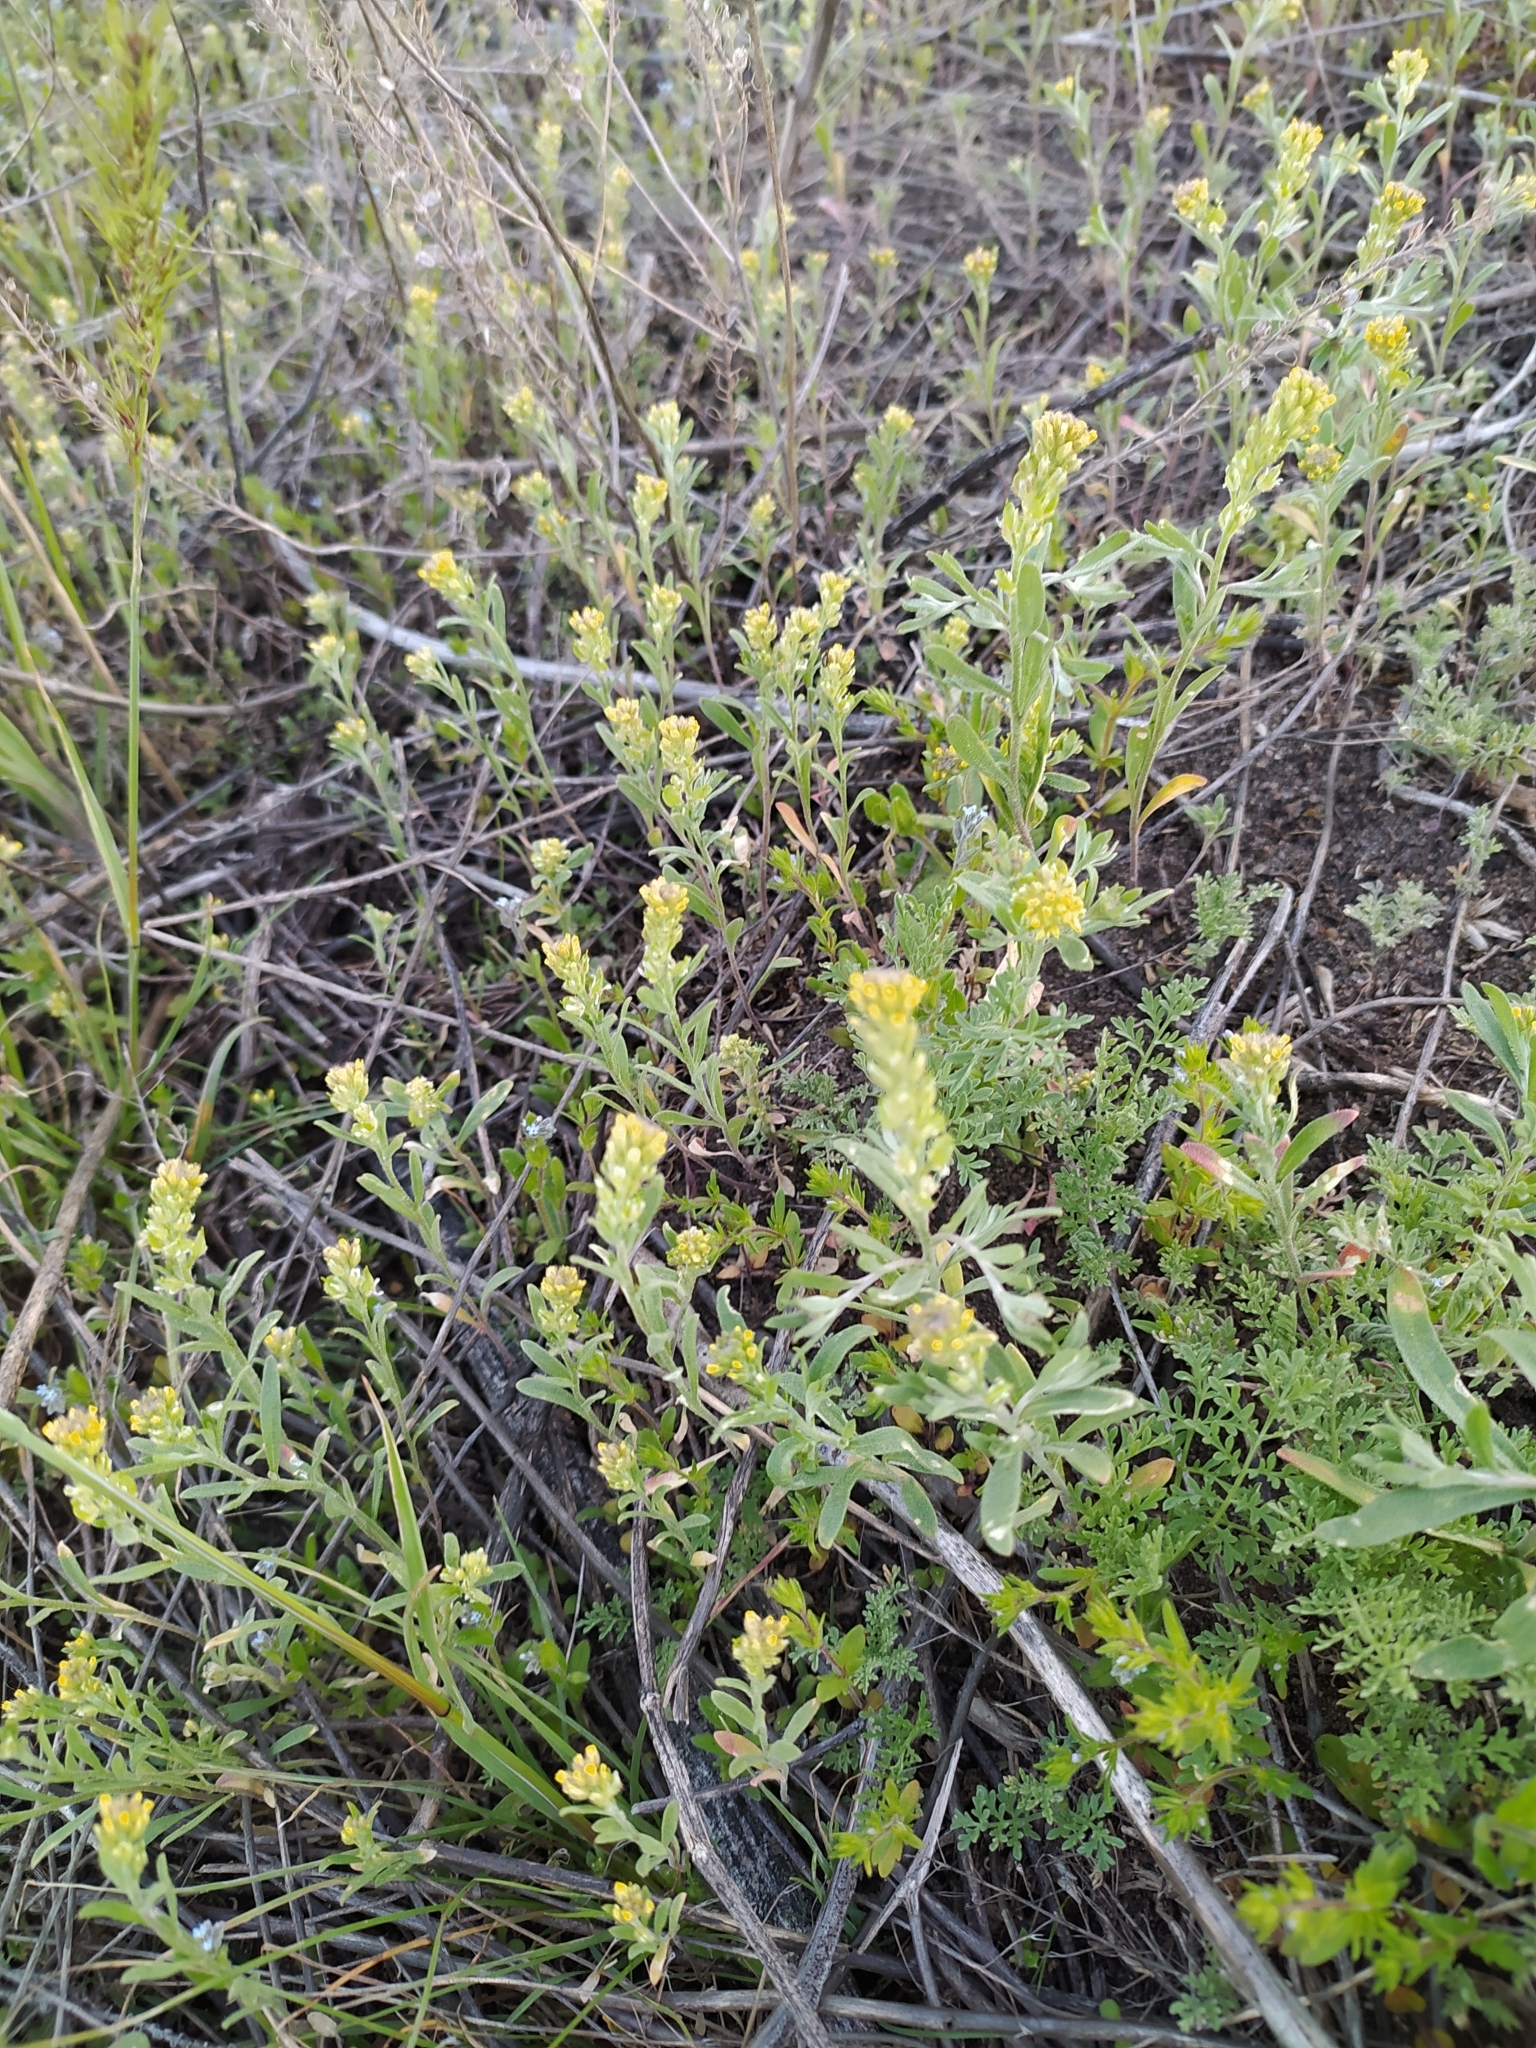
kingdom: Plantae
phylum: Tracheophyta
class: Magnoliopsida
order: Brassicales
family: Brassicaceae
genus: Alyssum
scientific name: Alyssum turkestanicum
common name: Desert alyssum
